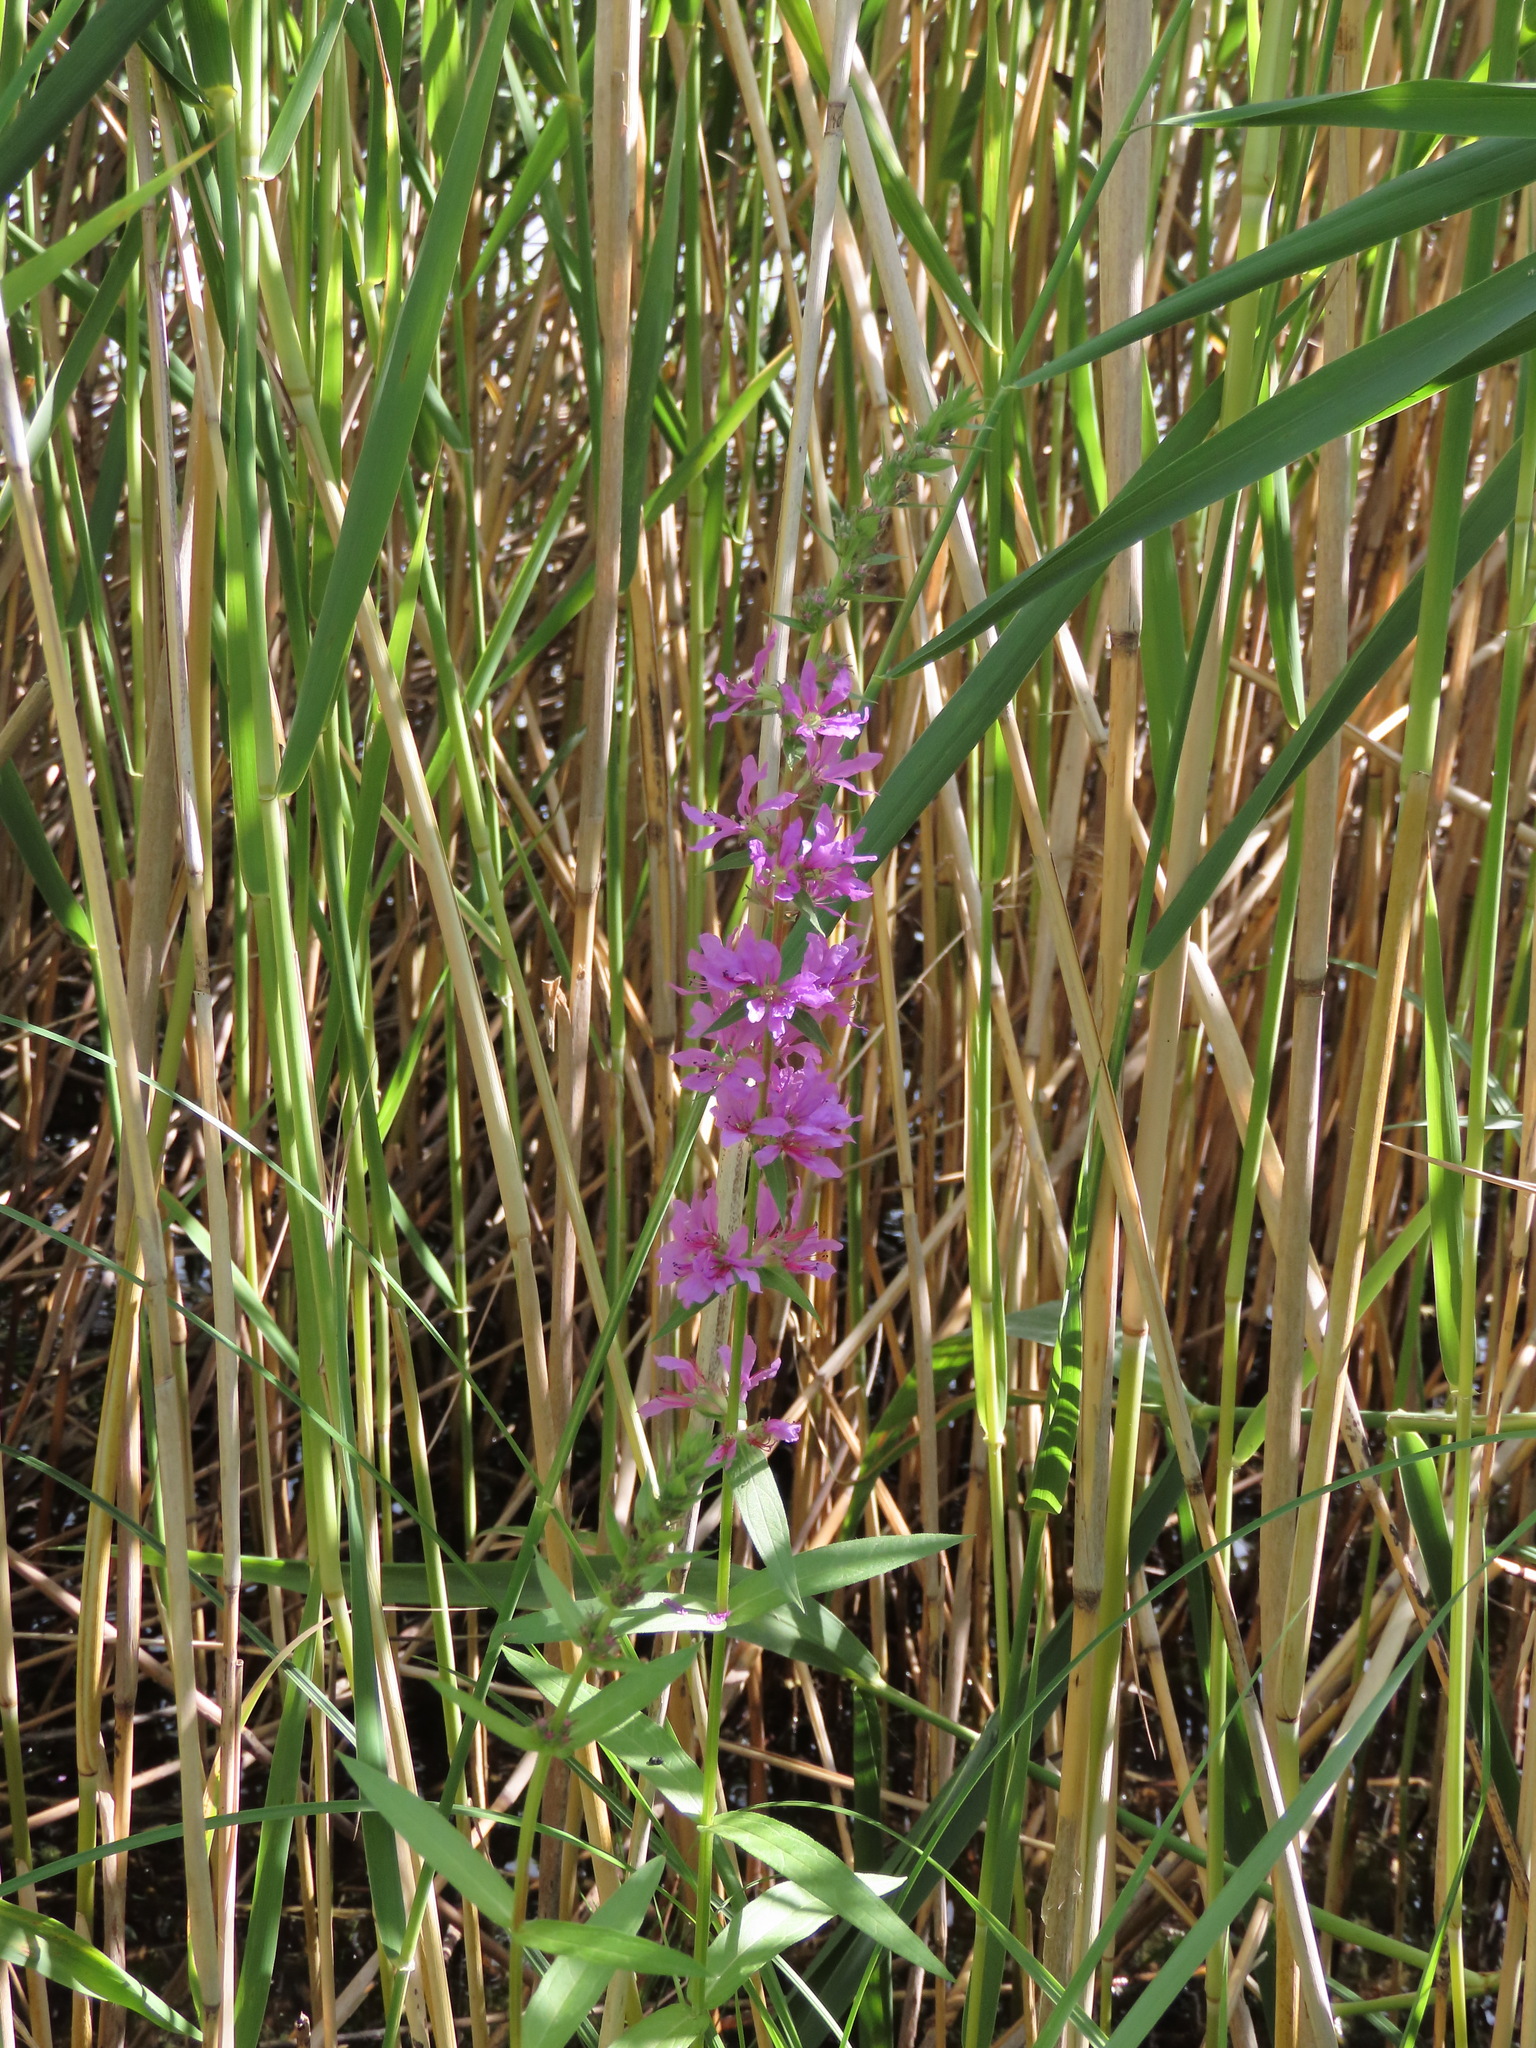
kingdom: Plantae
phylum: Tracheophyta
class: Magnoliopsida
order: Myrtales
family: Lythraceae
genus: Lythrum
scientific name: Lythrum salicaria
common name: Purple loosestrife
